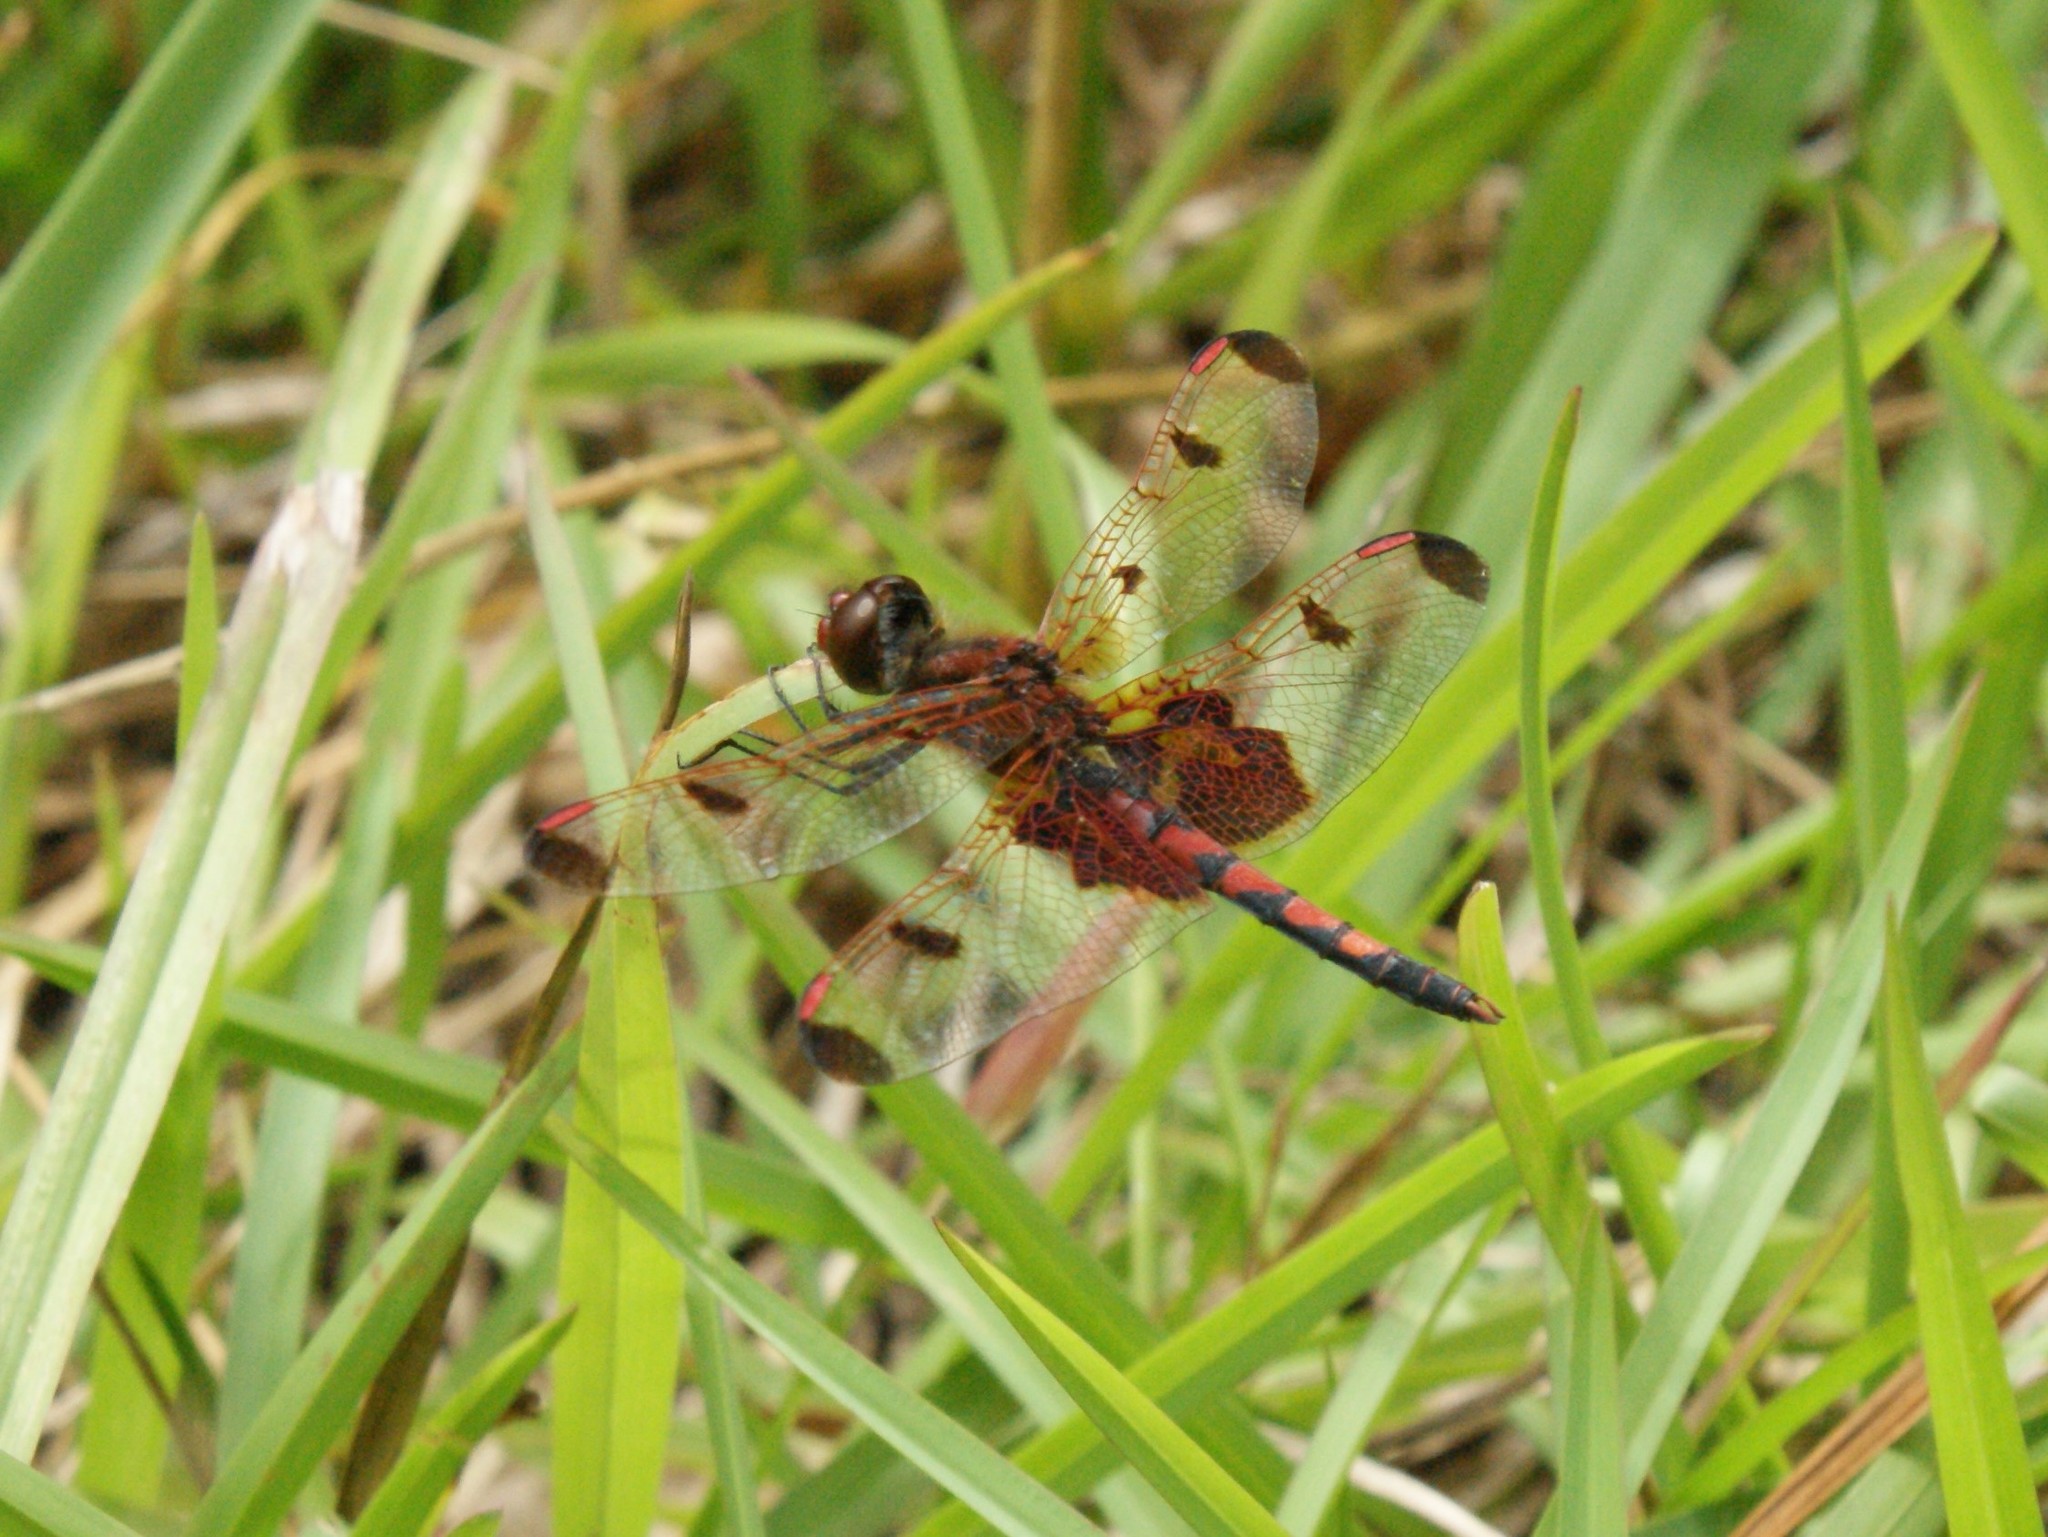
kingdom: Animalia
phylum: Arthropoda
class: Insecta
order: Odonata
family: Libellulidae
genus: Celithemis
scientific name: Celithemis elisa
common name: Calico pennant
